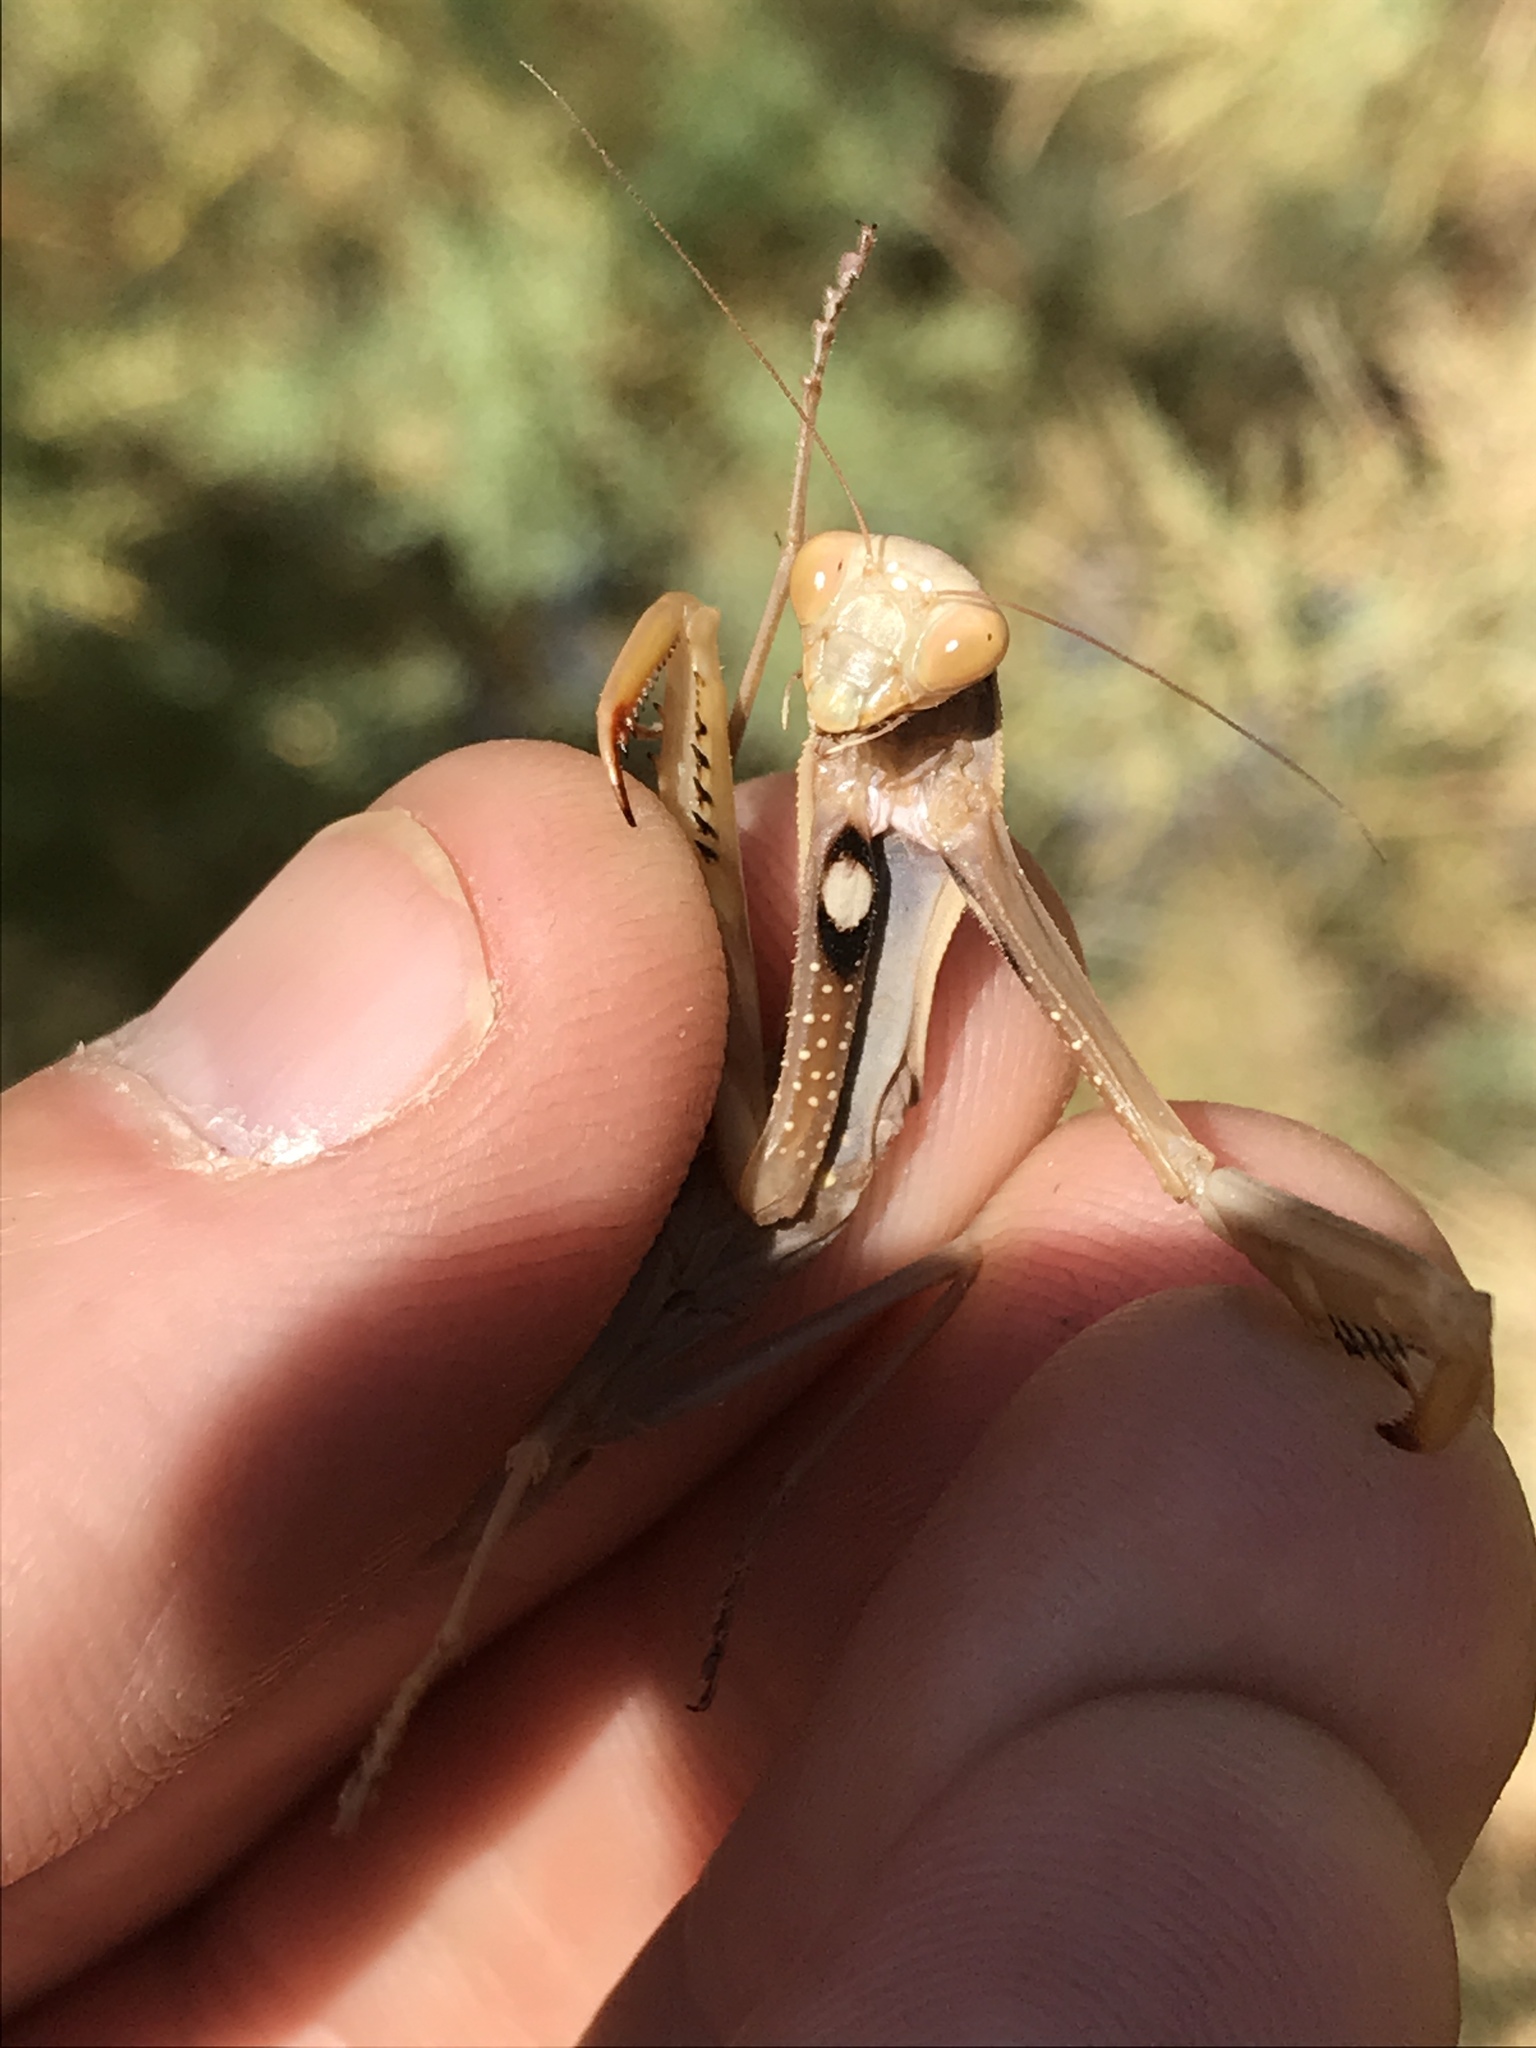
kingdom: Animalia
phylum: Arthropoda
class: Insecta
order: Mantodea
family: Mantidae
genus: Mantis
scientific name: Mantis religiosa
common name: Praying mantis
